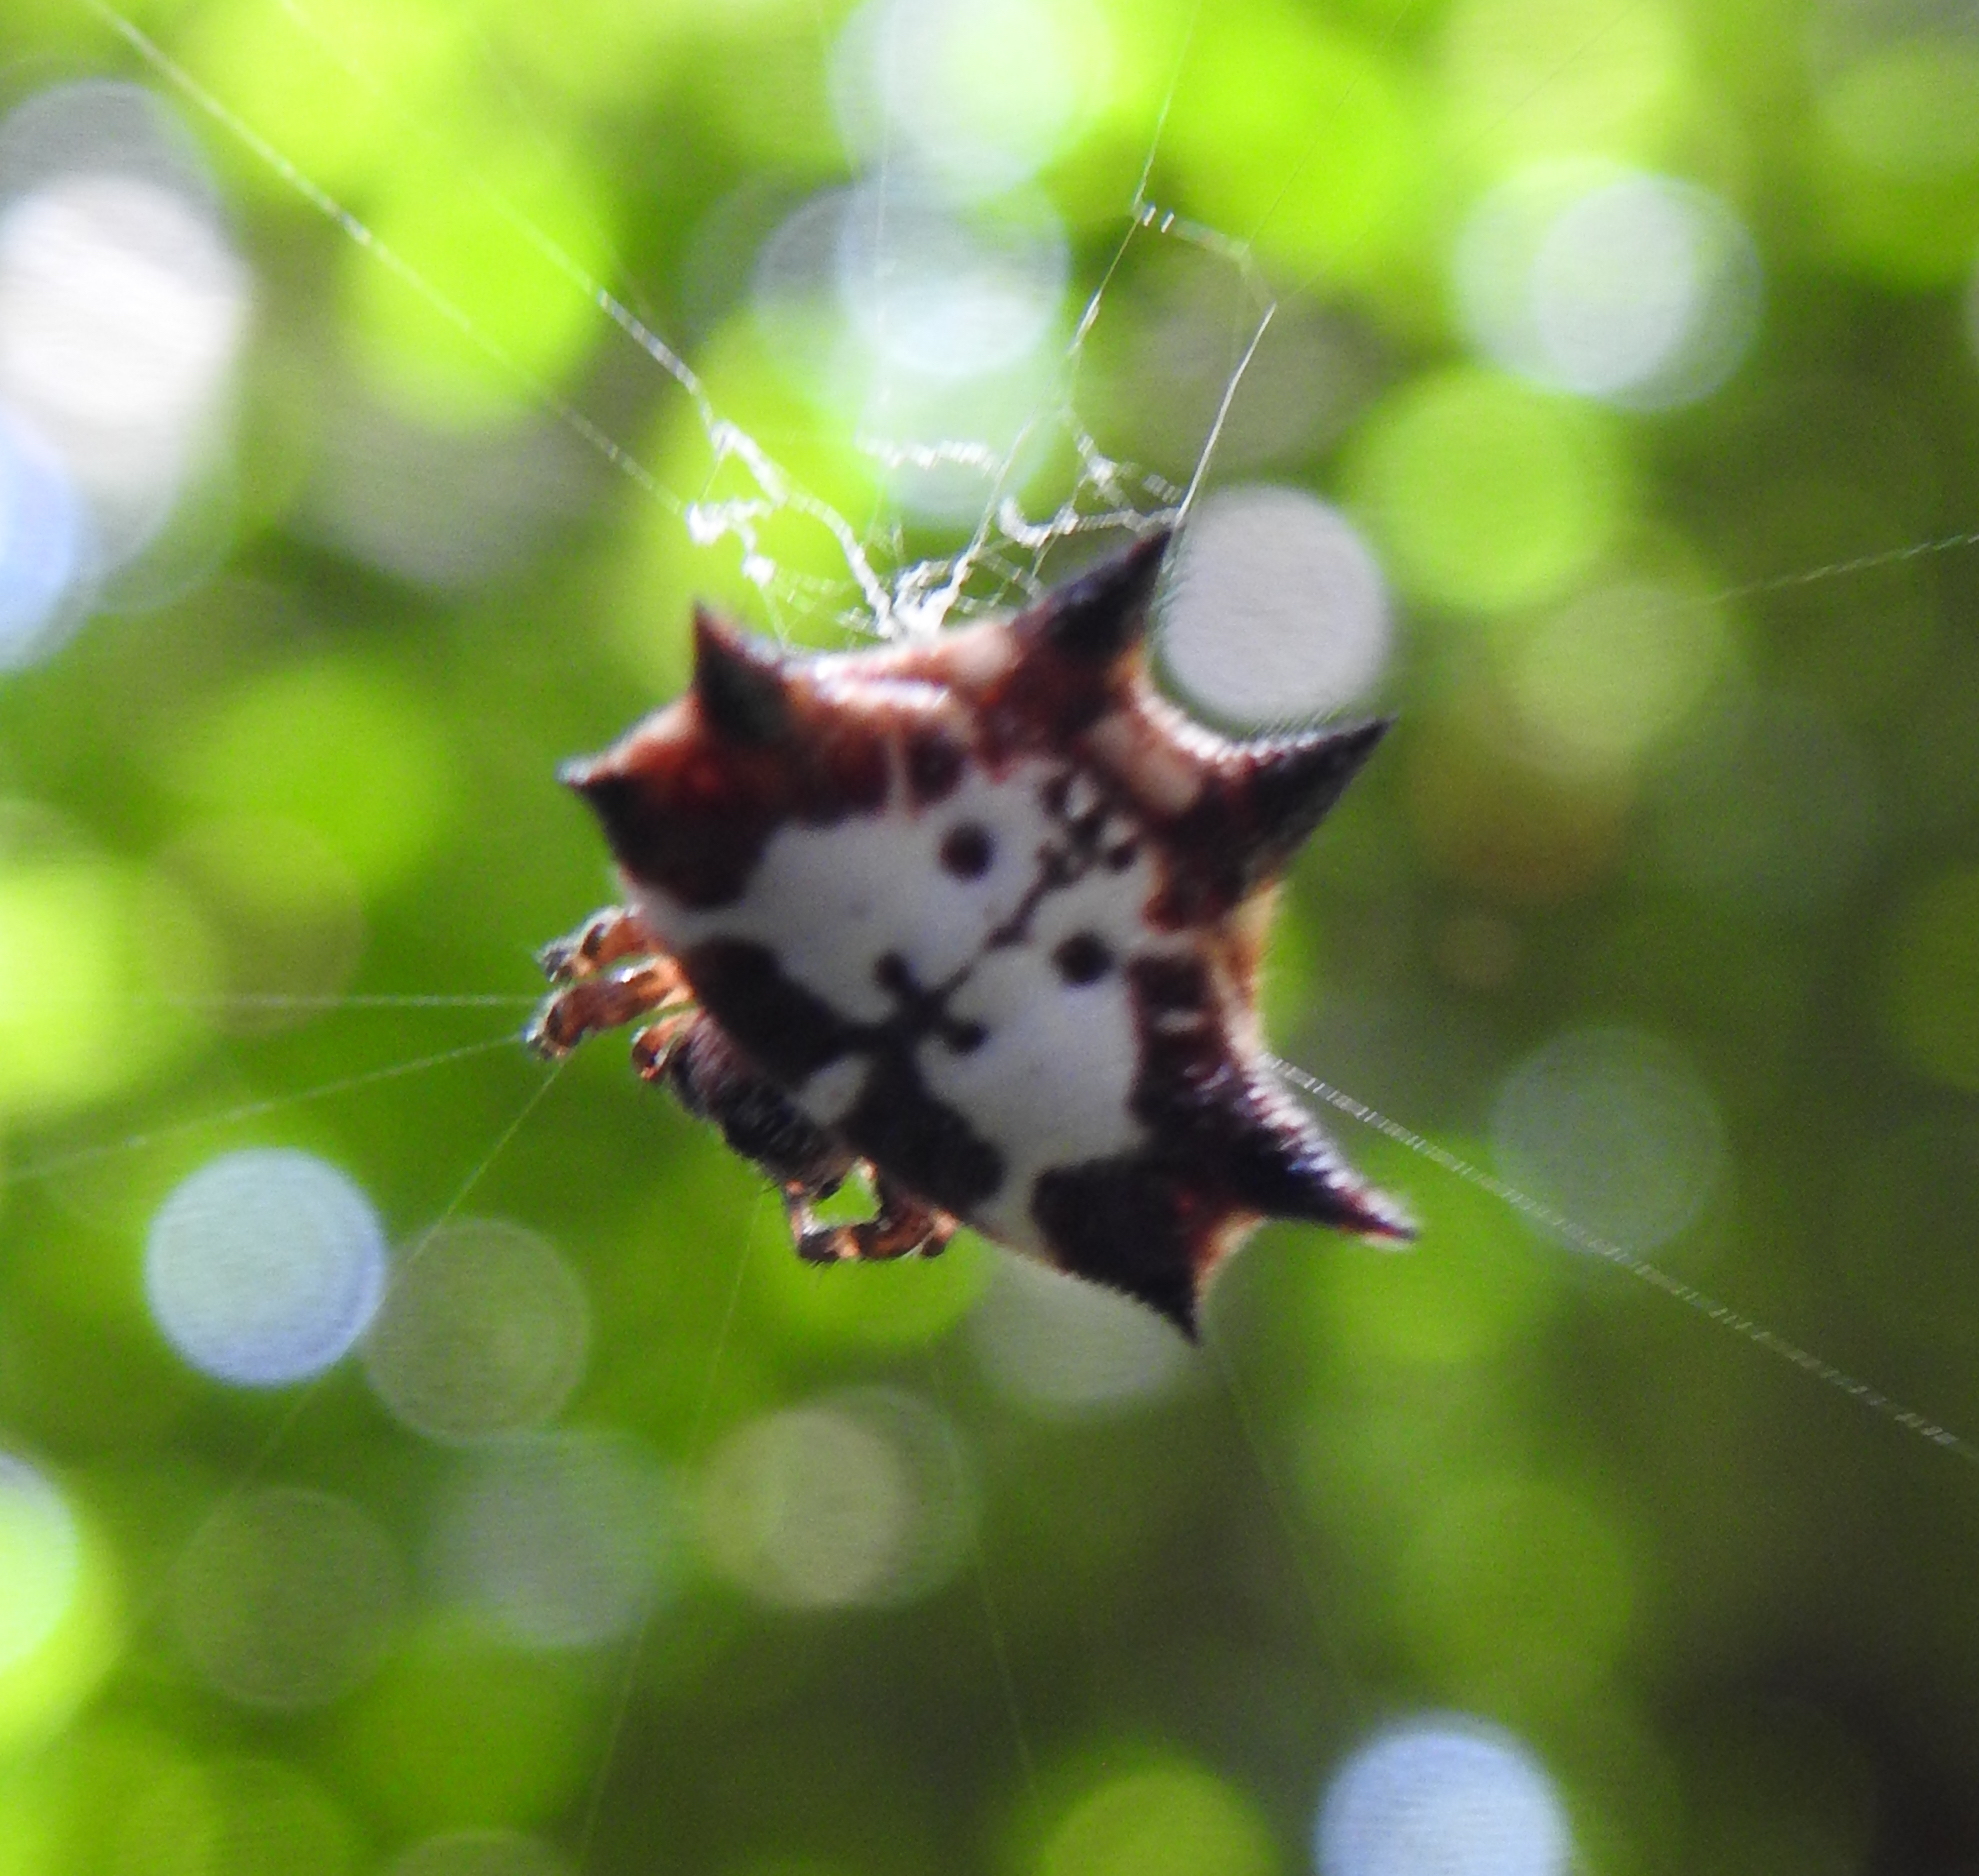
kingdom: Animalia
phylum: Arthropoda
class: Arachnida
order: Araneae
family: Araneidae
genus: Gasteracantha
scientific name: Gasteracantha kuhli
